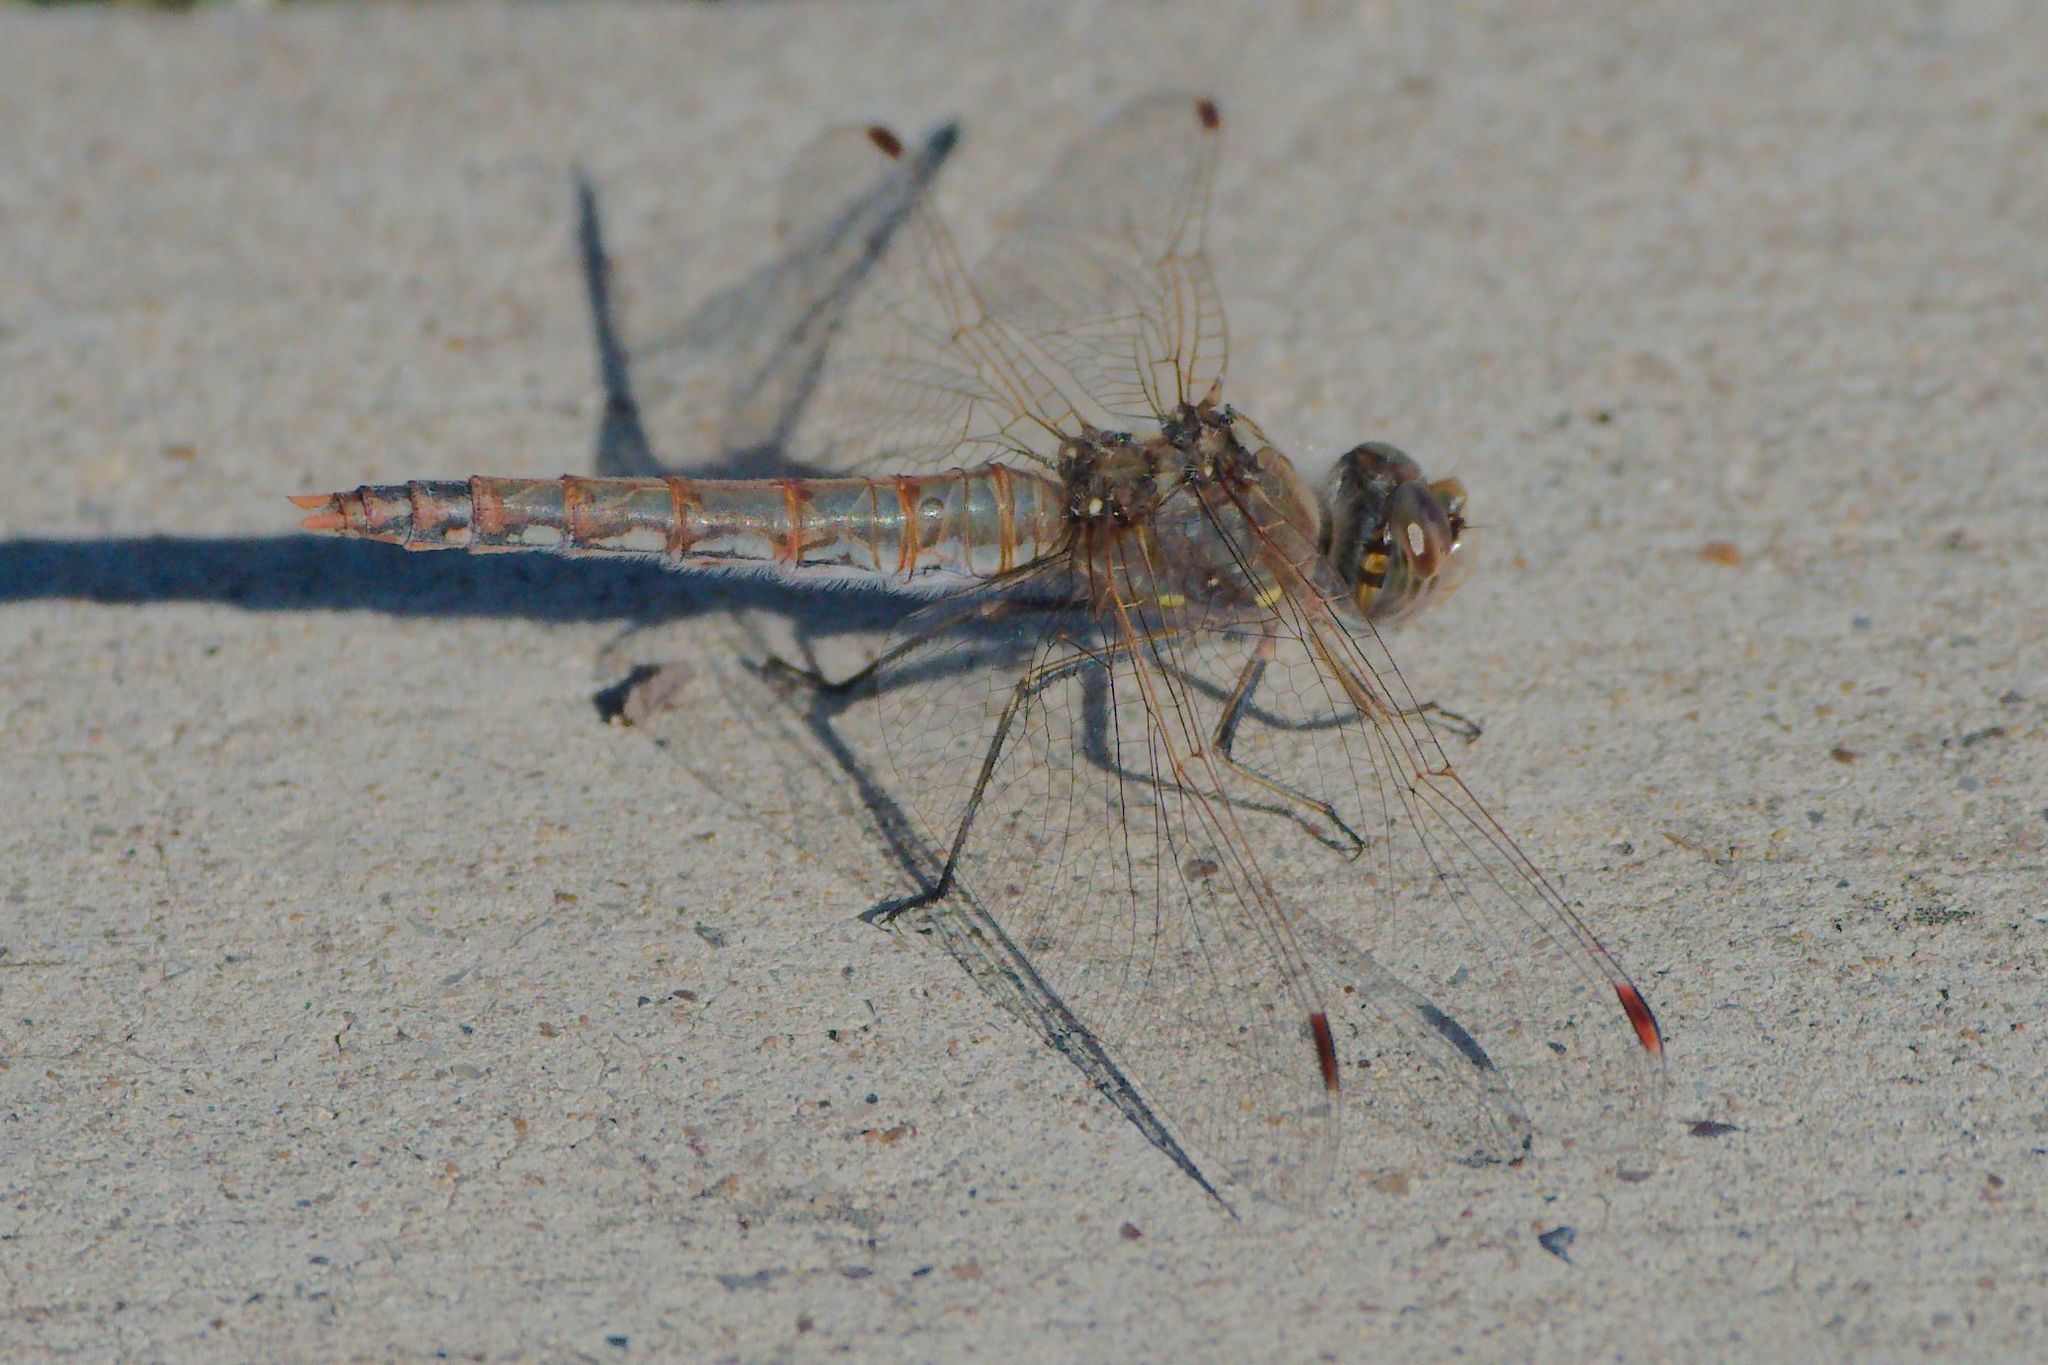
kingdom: Animalia
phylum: Arthropoda
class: Insecta
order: Odonata
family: Libellulidae
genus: Sympetrum
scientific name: Sympetrum corruptum
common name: Variegated meadowhawk
